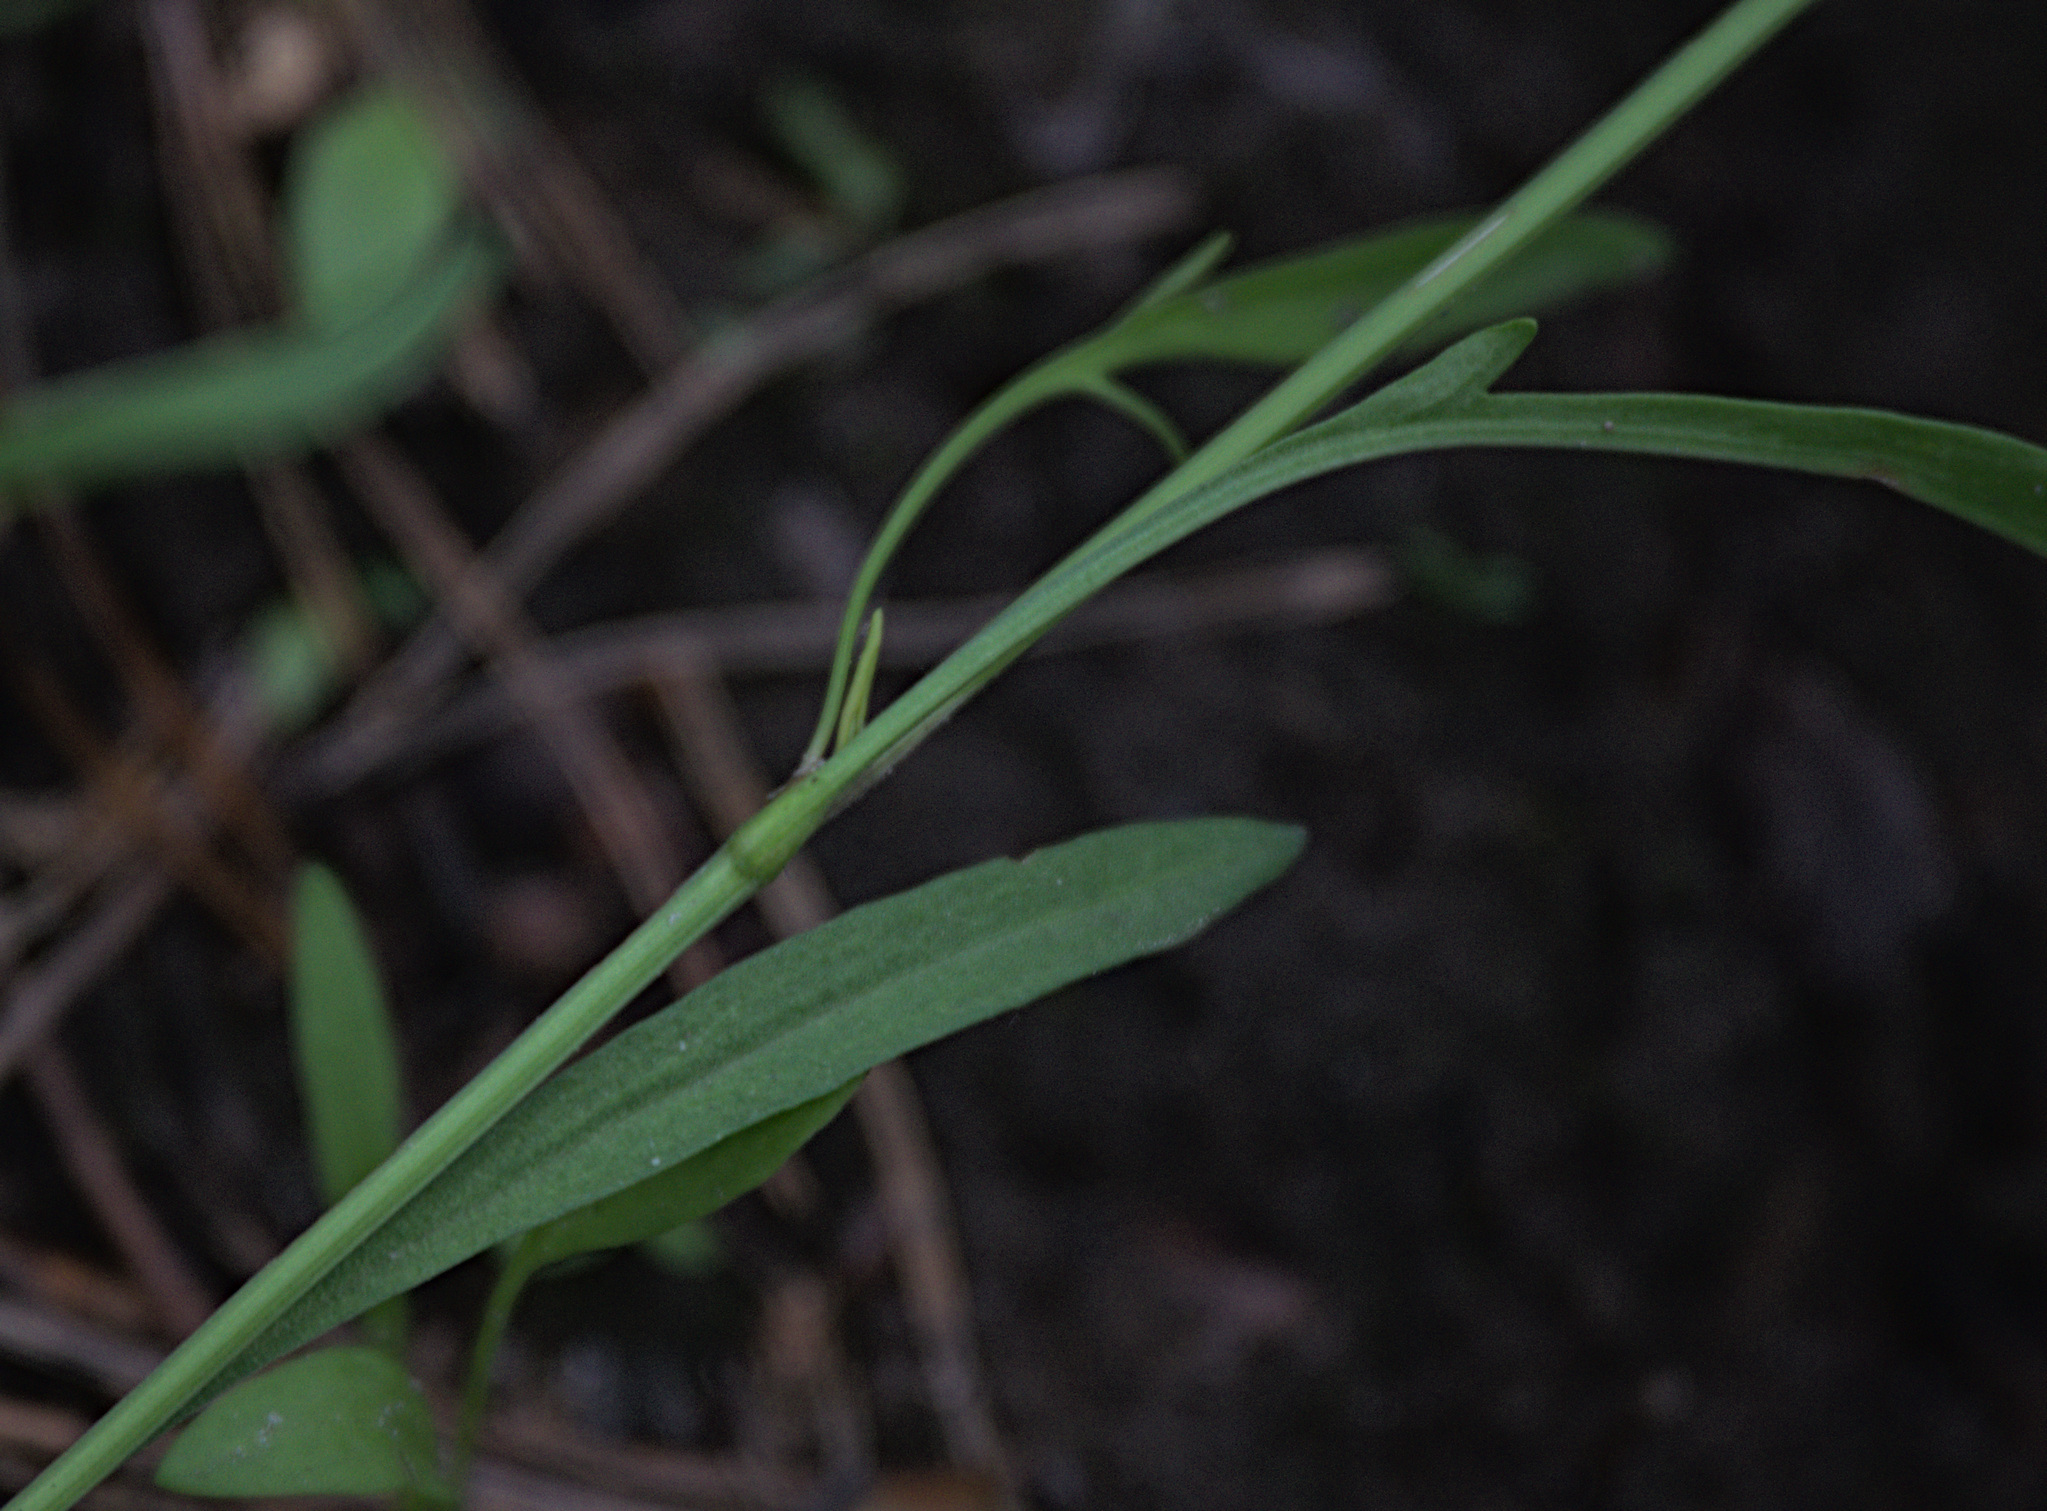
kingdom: Plantae
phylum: Tracheophyta
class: Magnoliopsida
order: Caryophyllales
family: Polygonaceae
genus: Rumex
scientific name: Rumex acetosella
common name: Common sheep sorrel
